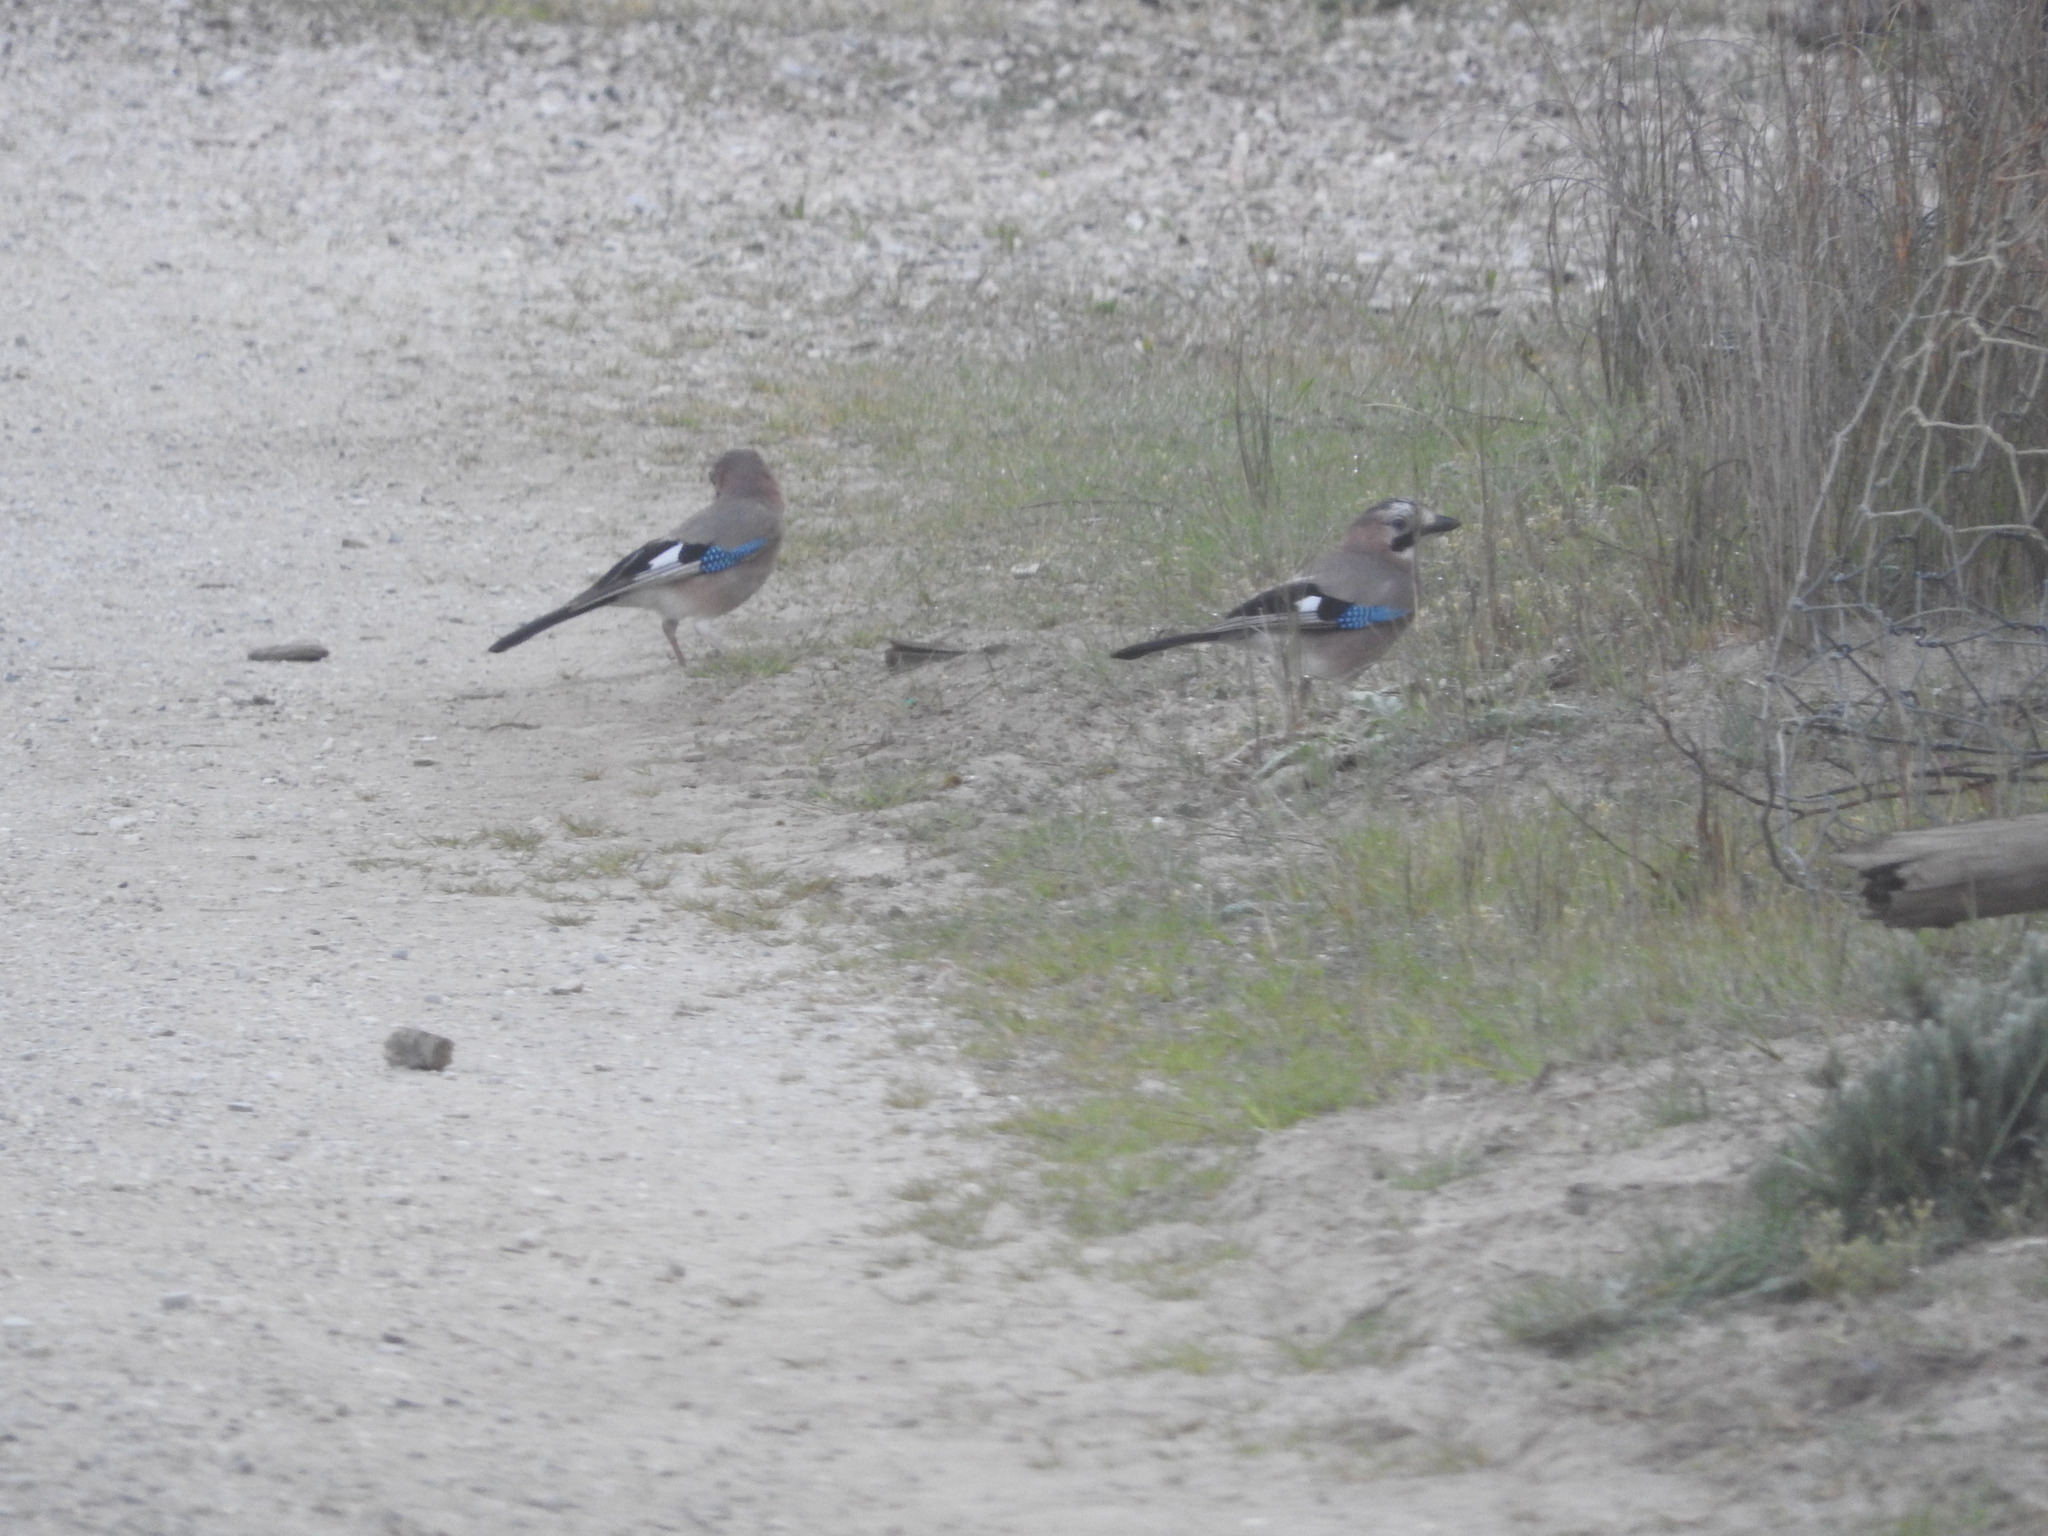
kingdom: Animalia
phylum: Chordata
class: Aves
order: Passeriformes
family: Corvidae
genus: Garrulus
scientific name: Garrulus glandarius
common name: Eurasian jay
